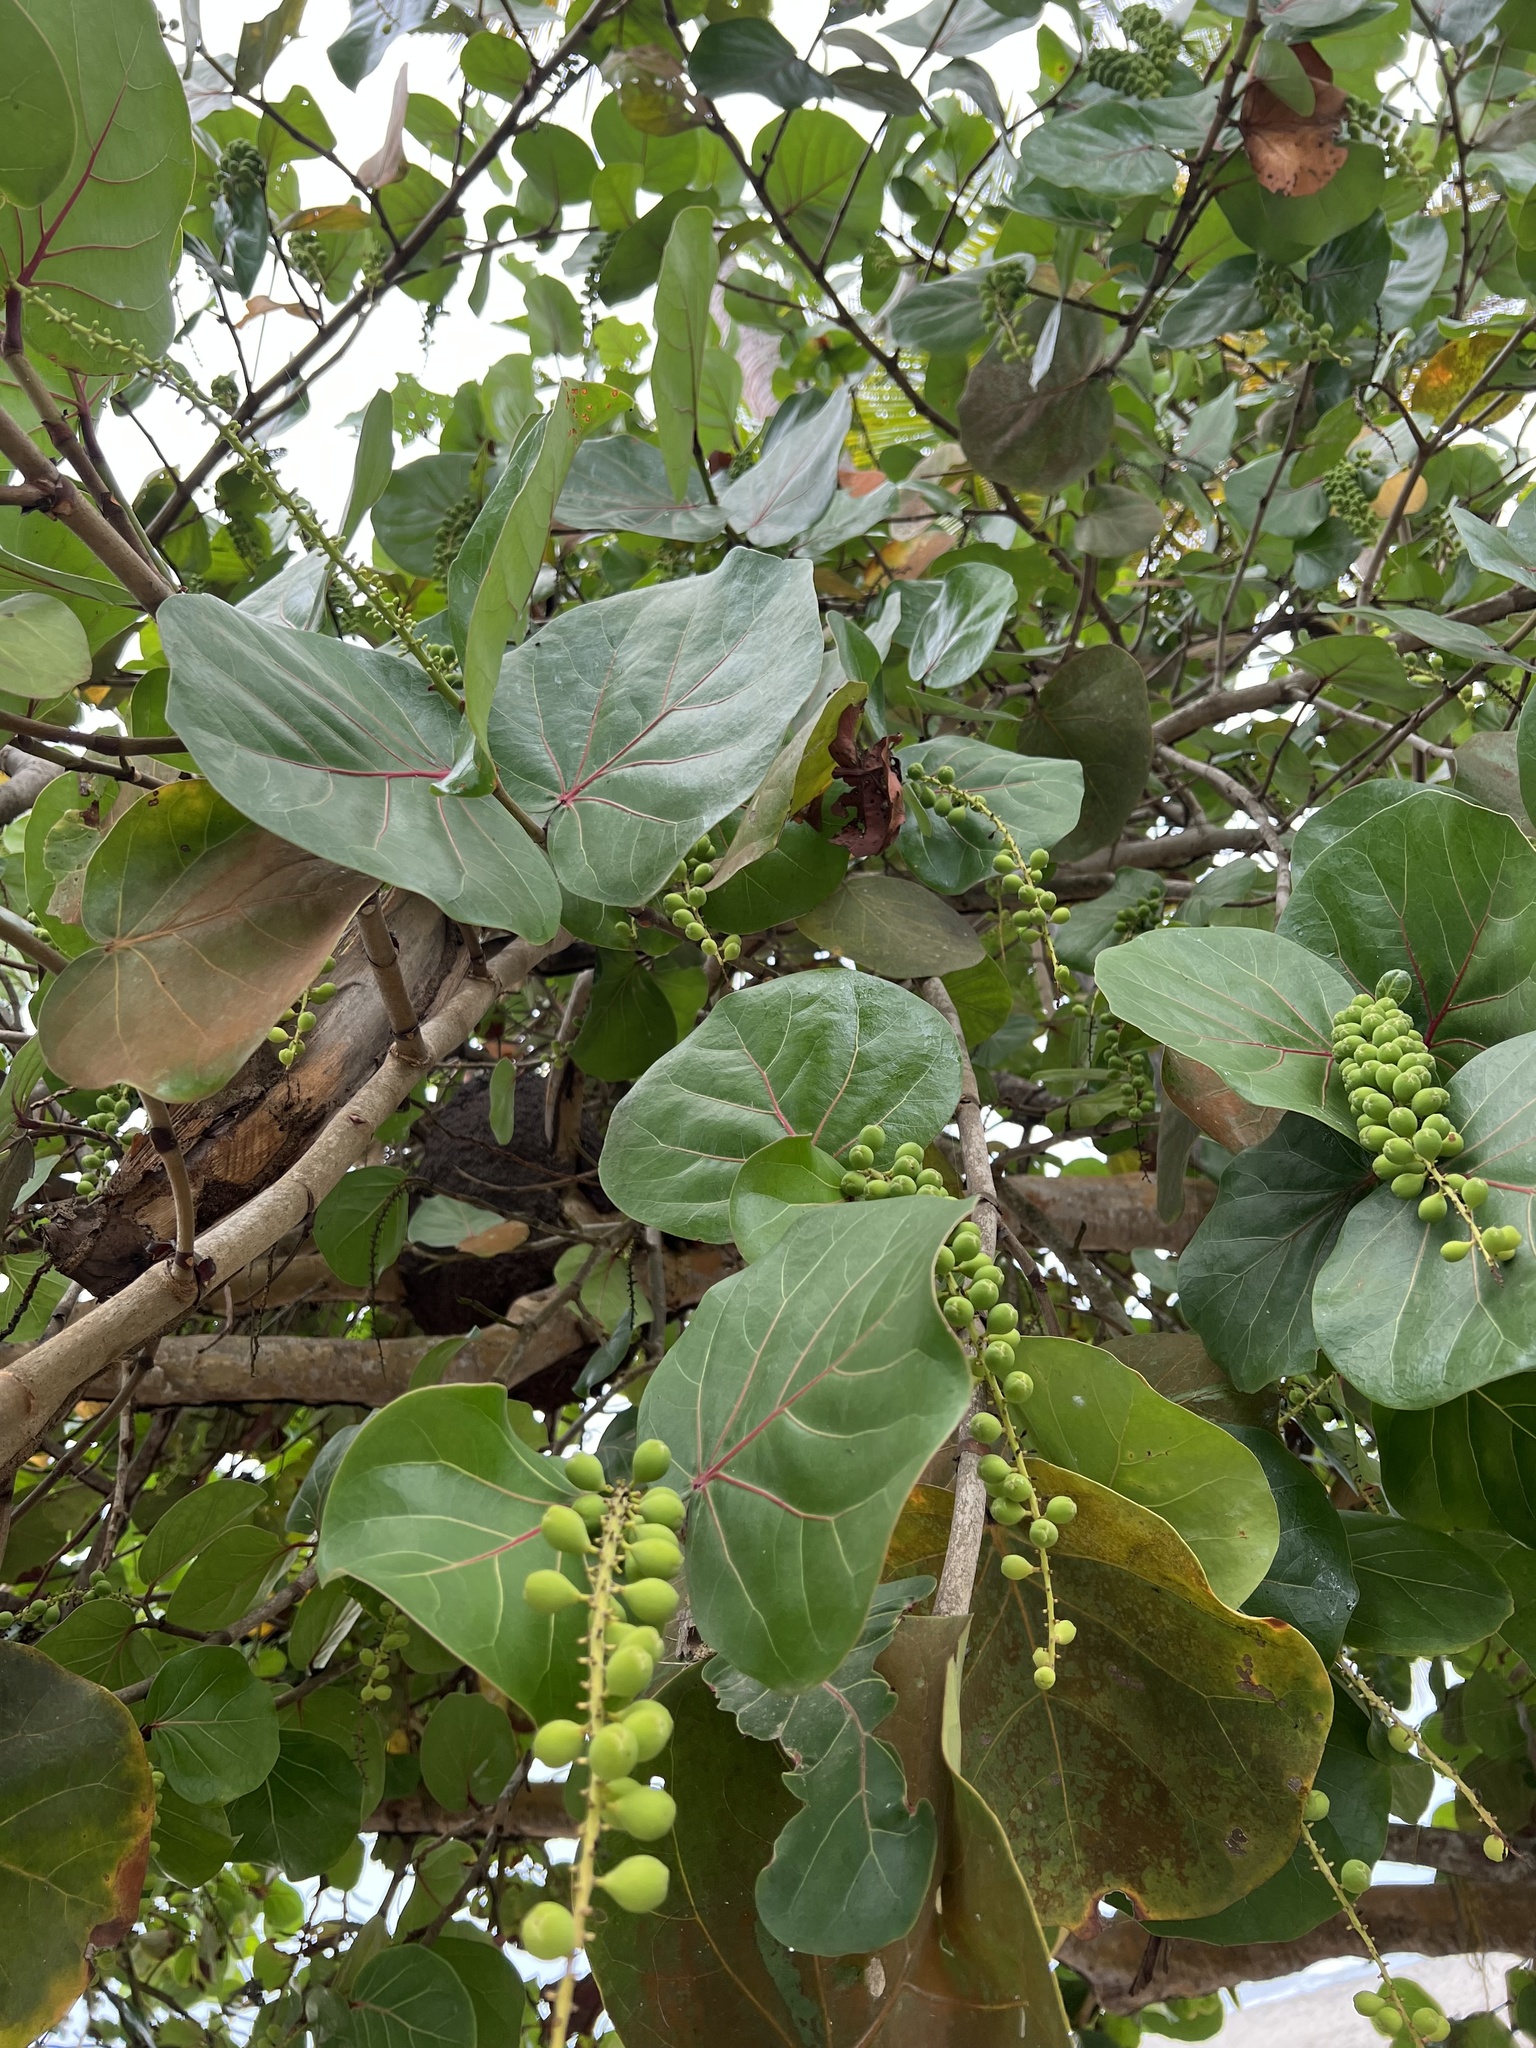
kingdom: Plantae
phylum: Tracheophyta
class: Magnoliopsida
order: Caryophyllales
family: Polygonaceae
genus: Coccoloba
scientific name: Coccoloba uvifera
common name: Seagrape
